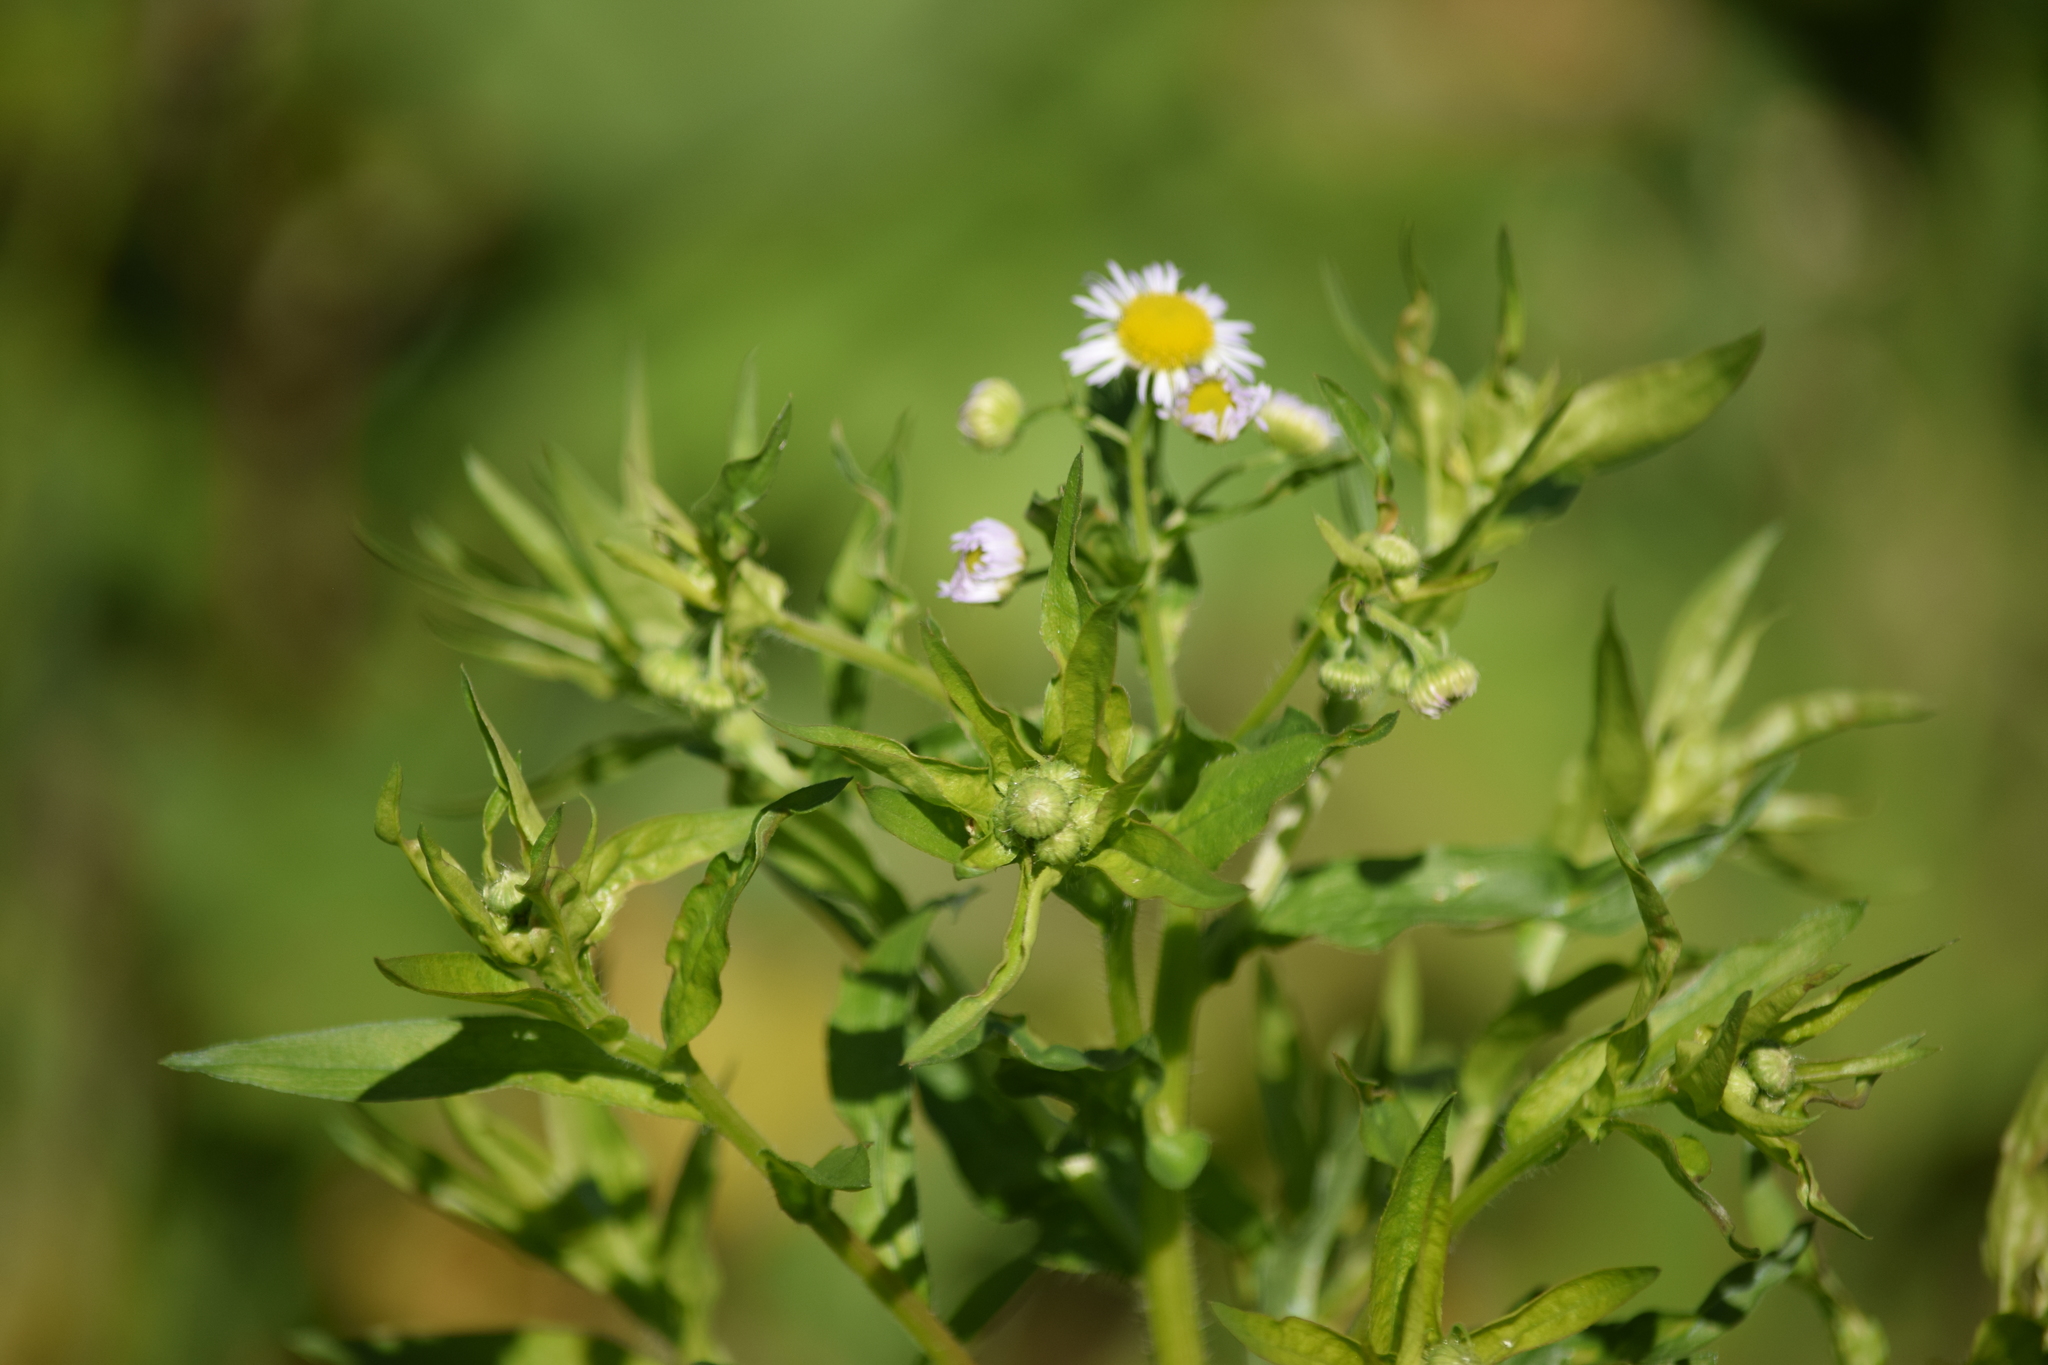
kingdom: Plantae
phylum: Tracheophyta
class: Magnoliopsida
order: Asterales
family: Asteraceae
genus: Erigeron
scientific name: Erigeron annuus
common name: Tall fleabane
